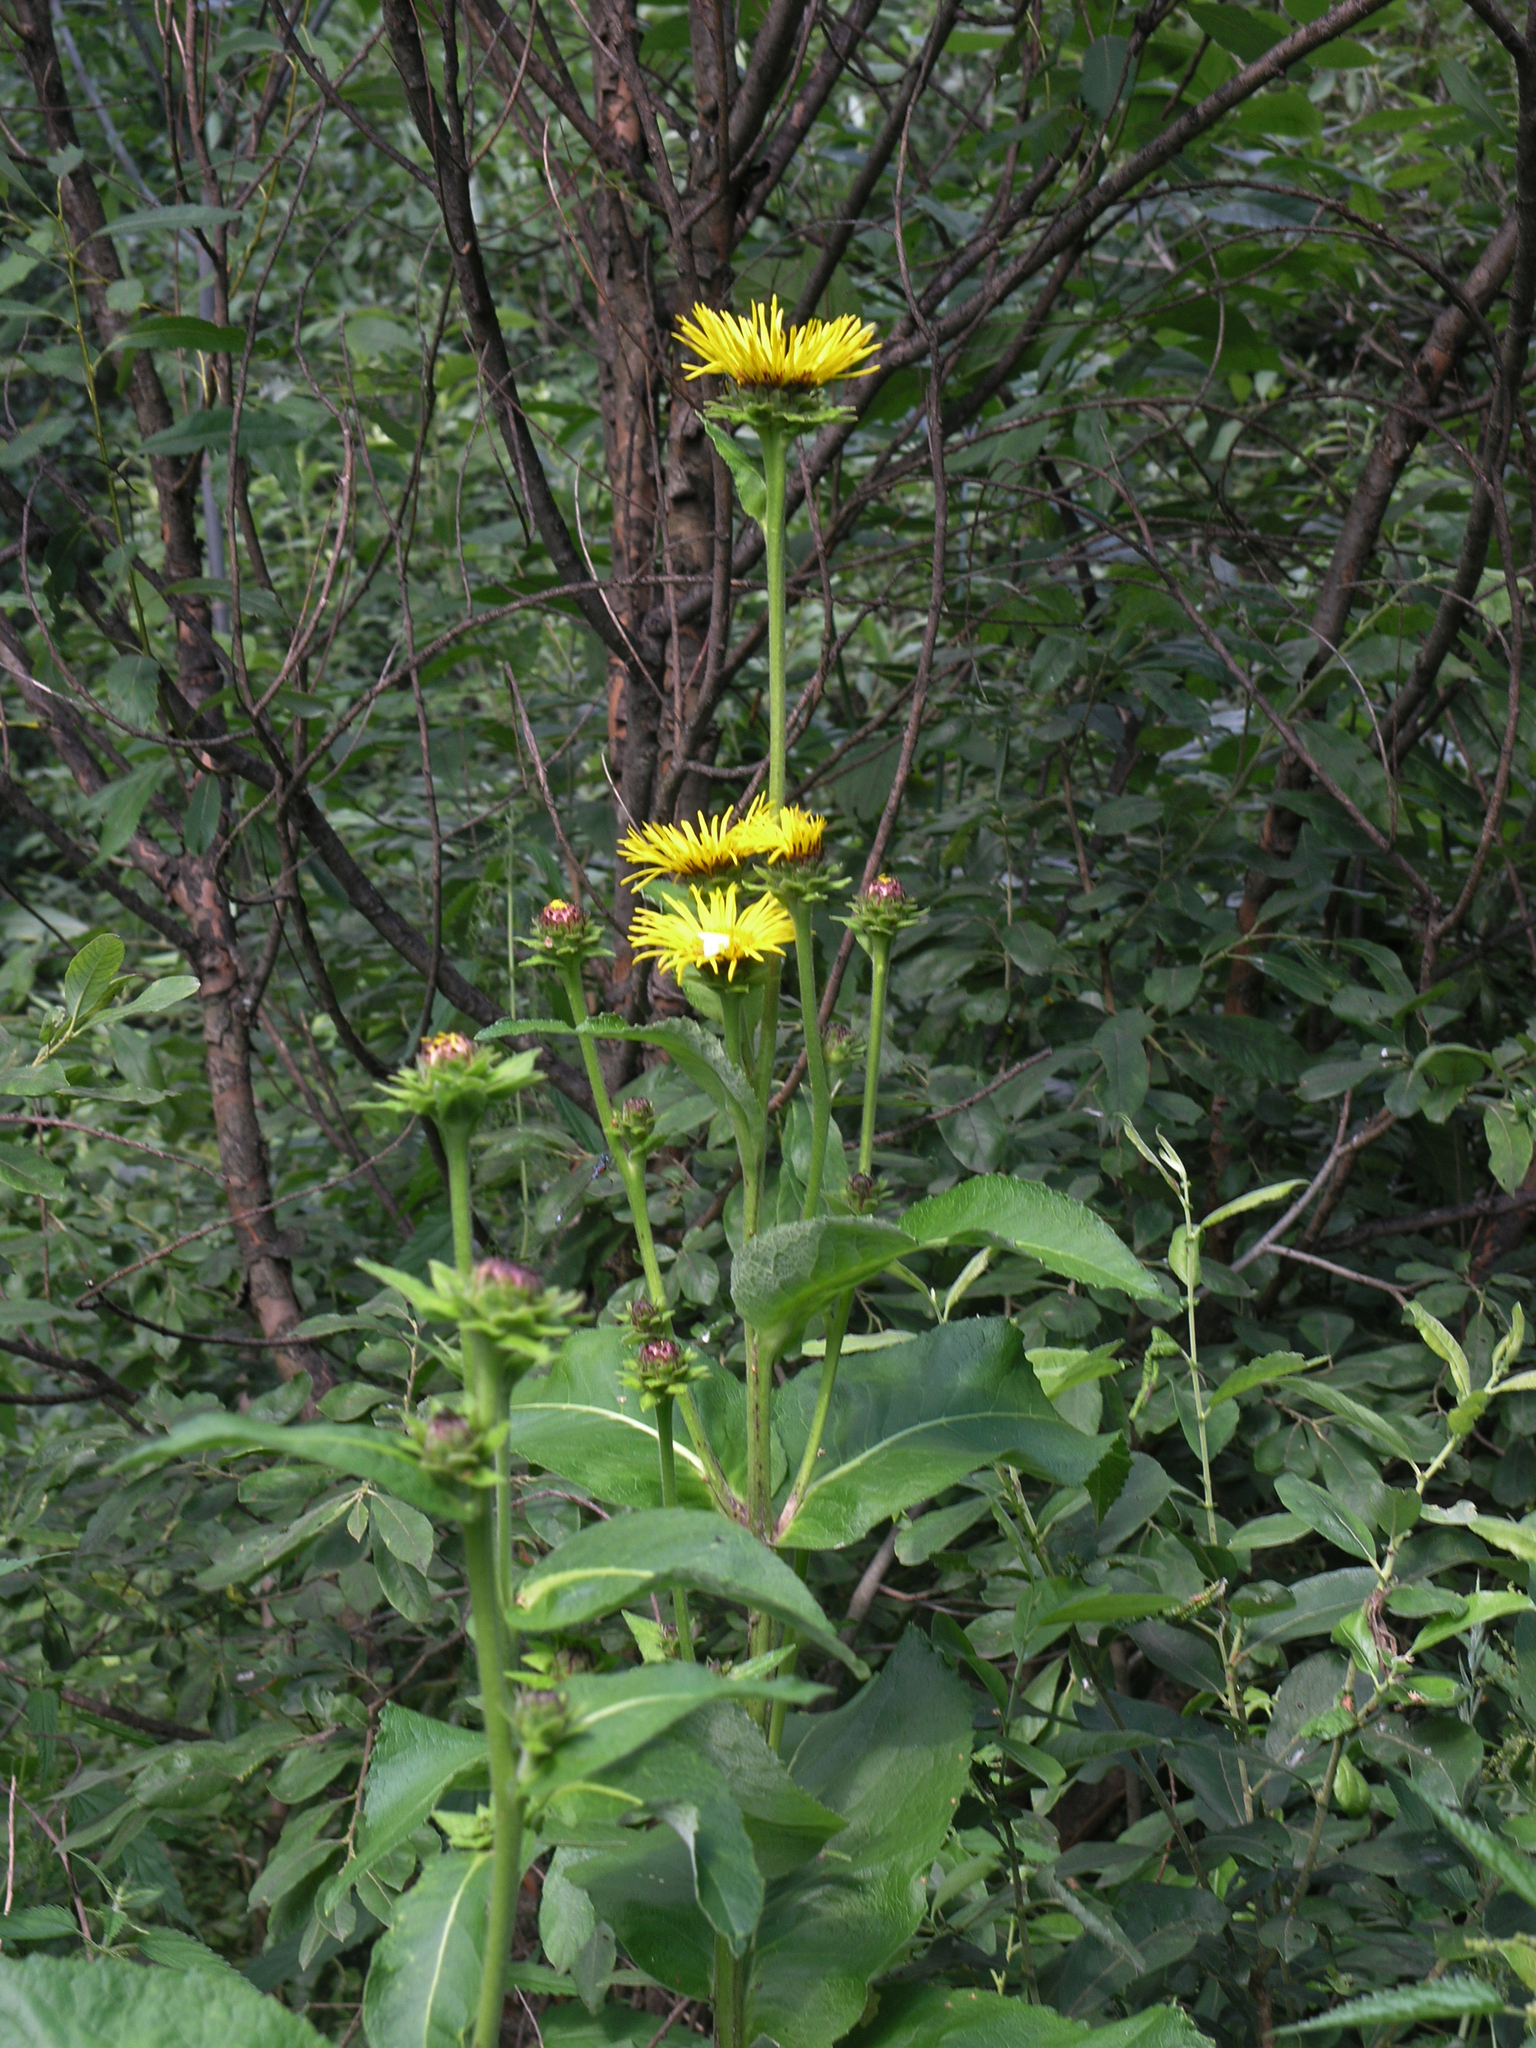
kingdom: Plantae
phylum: Tracheophyta
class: Magnoliopsida
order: Asterales
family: Asteraceae
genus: Inula
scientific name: Inula helenium
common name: Elecampane
